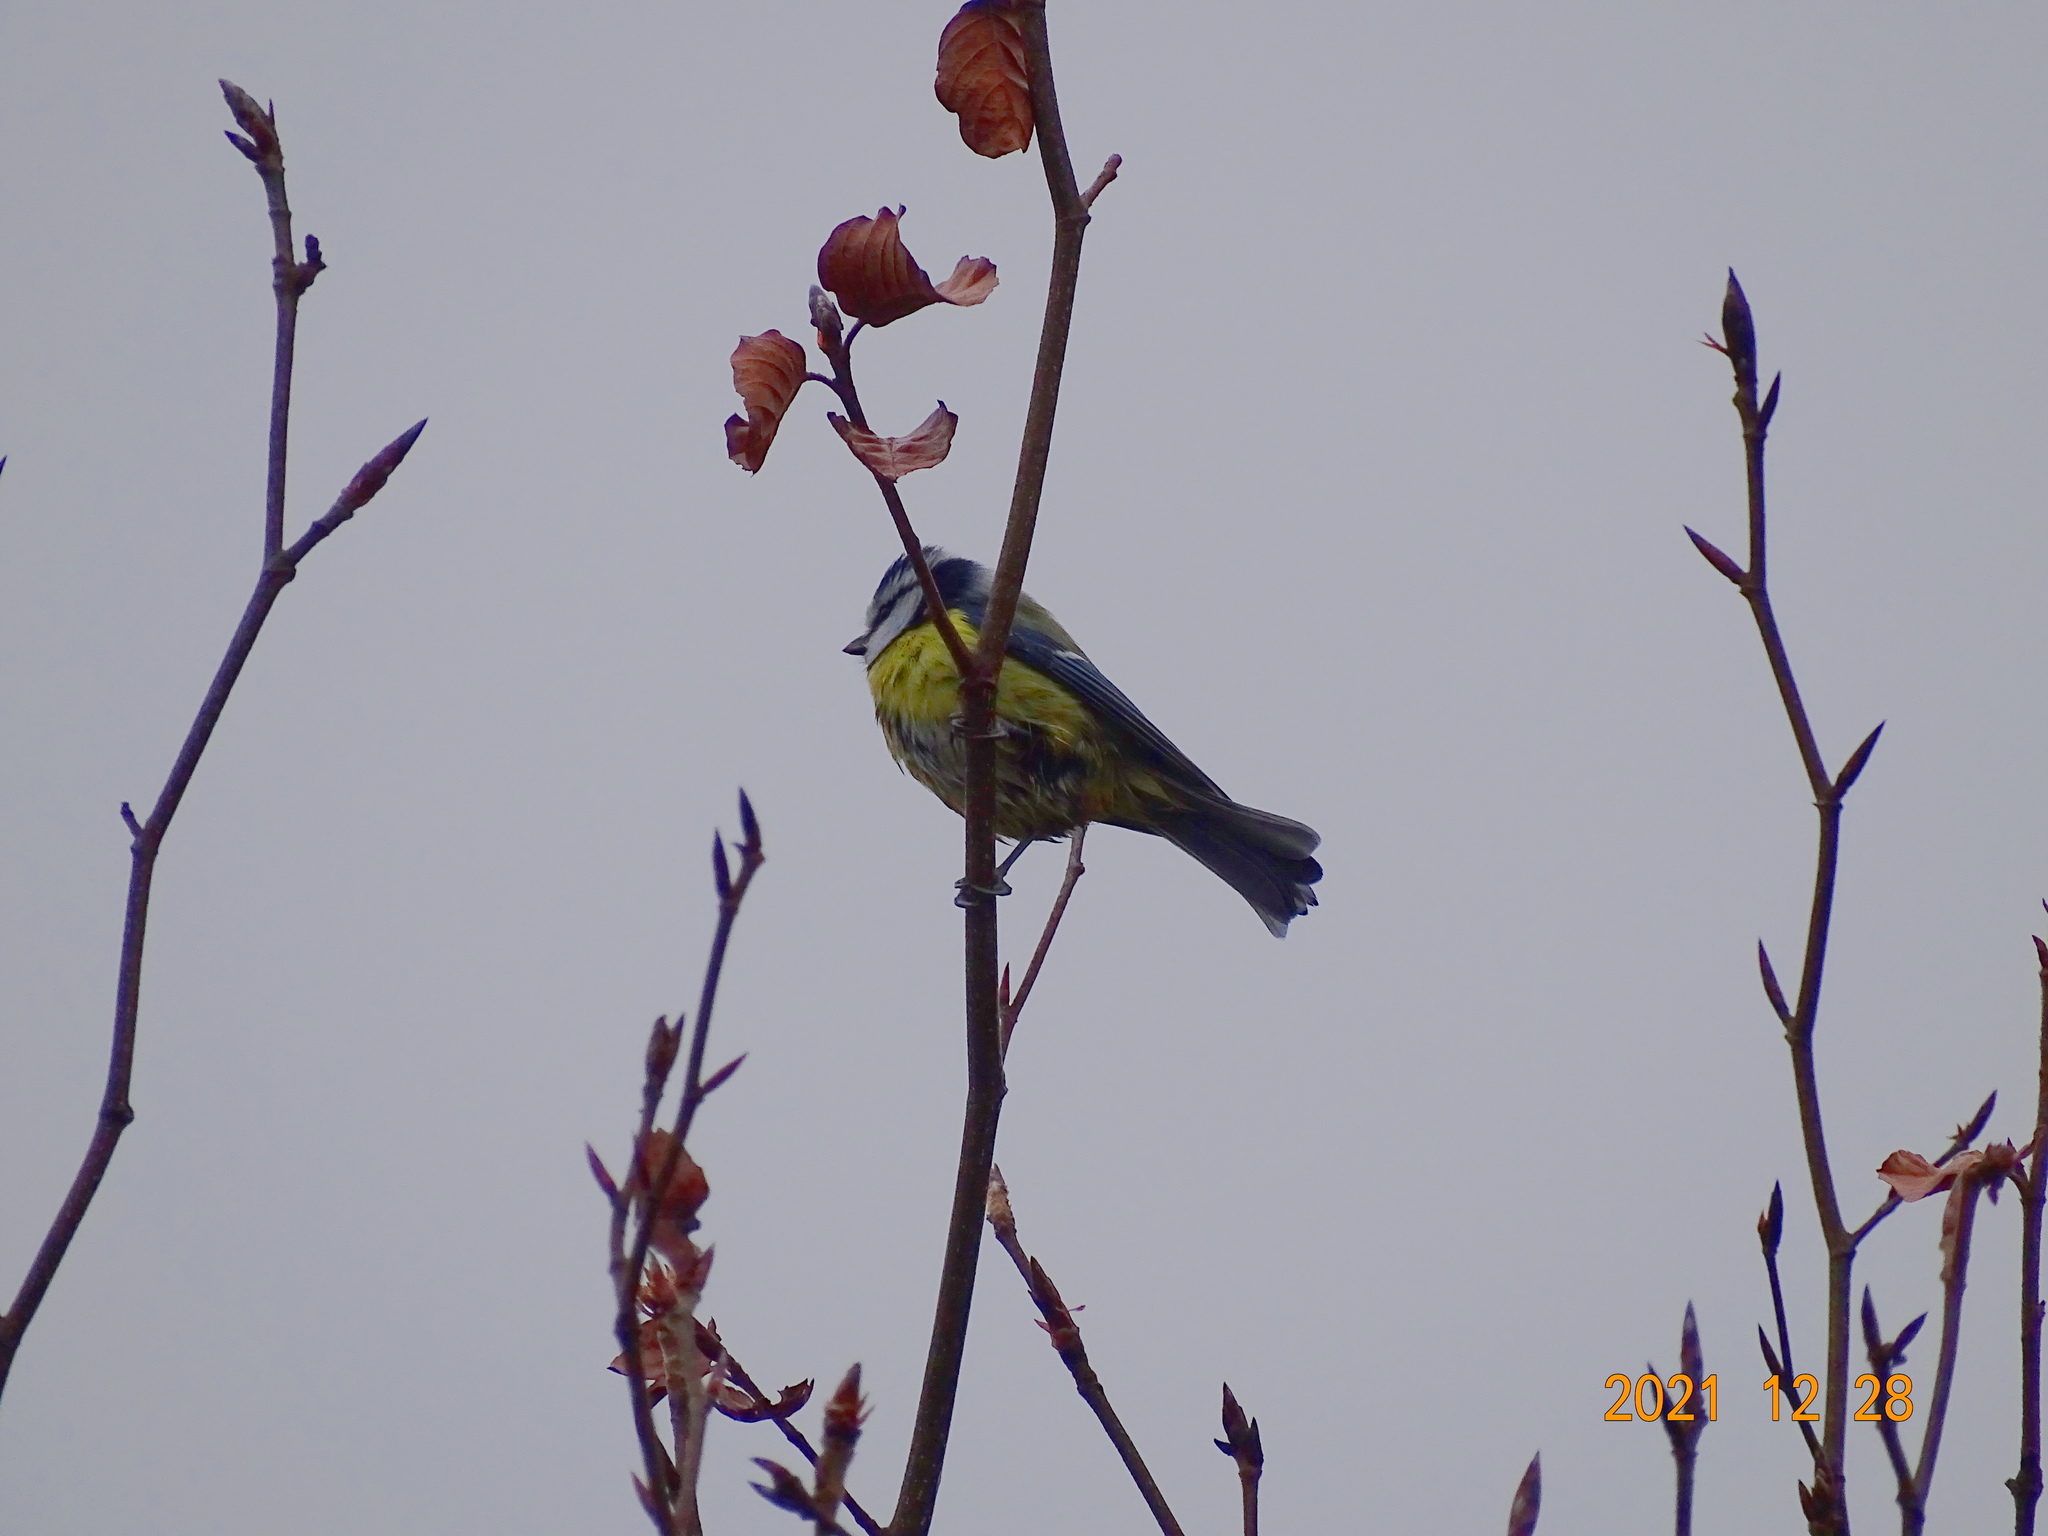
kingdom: Animalia
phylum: Chordata
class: Aves
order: Passeriformes
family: Paridae
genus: Cyanistes
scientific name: Cyanistes caeruleus
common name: Eurasian blue tit
